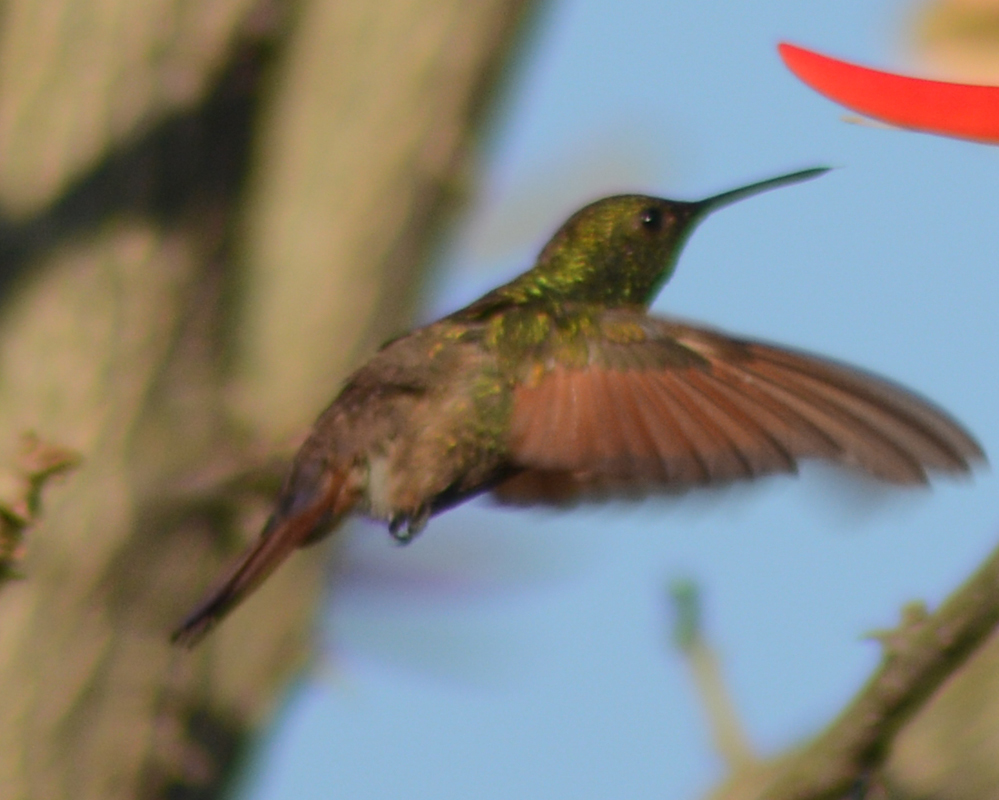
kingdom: Animalia
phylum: Chordata
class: Aves
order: Apodiformes
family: Trochilidae
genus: Saucerottia
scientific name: Saucerottia beryllina
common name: Berylline hummingbird
